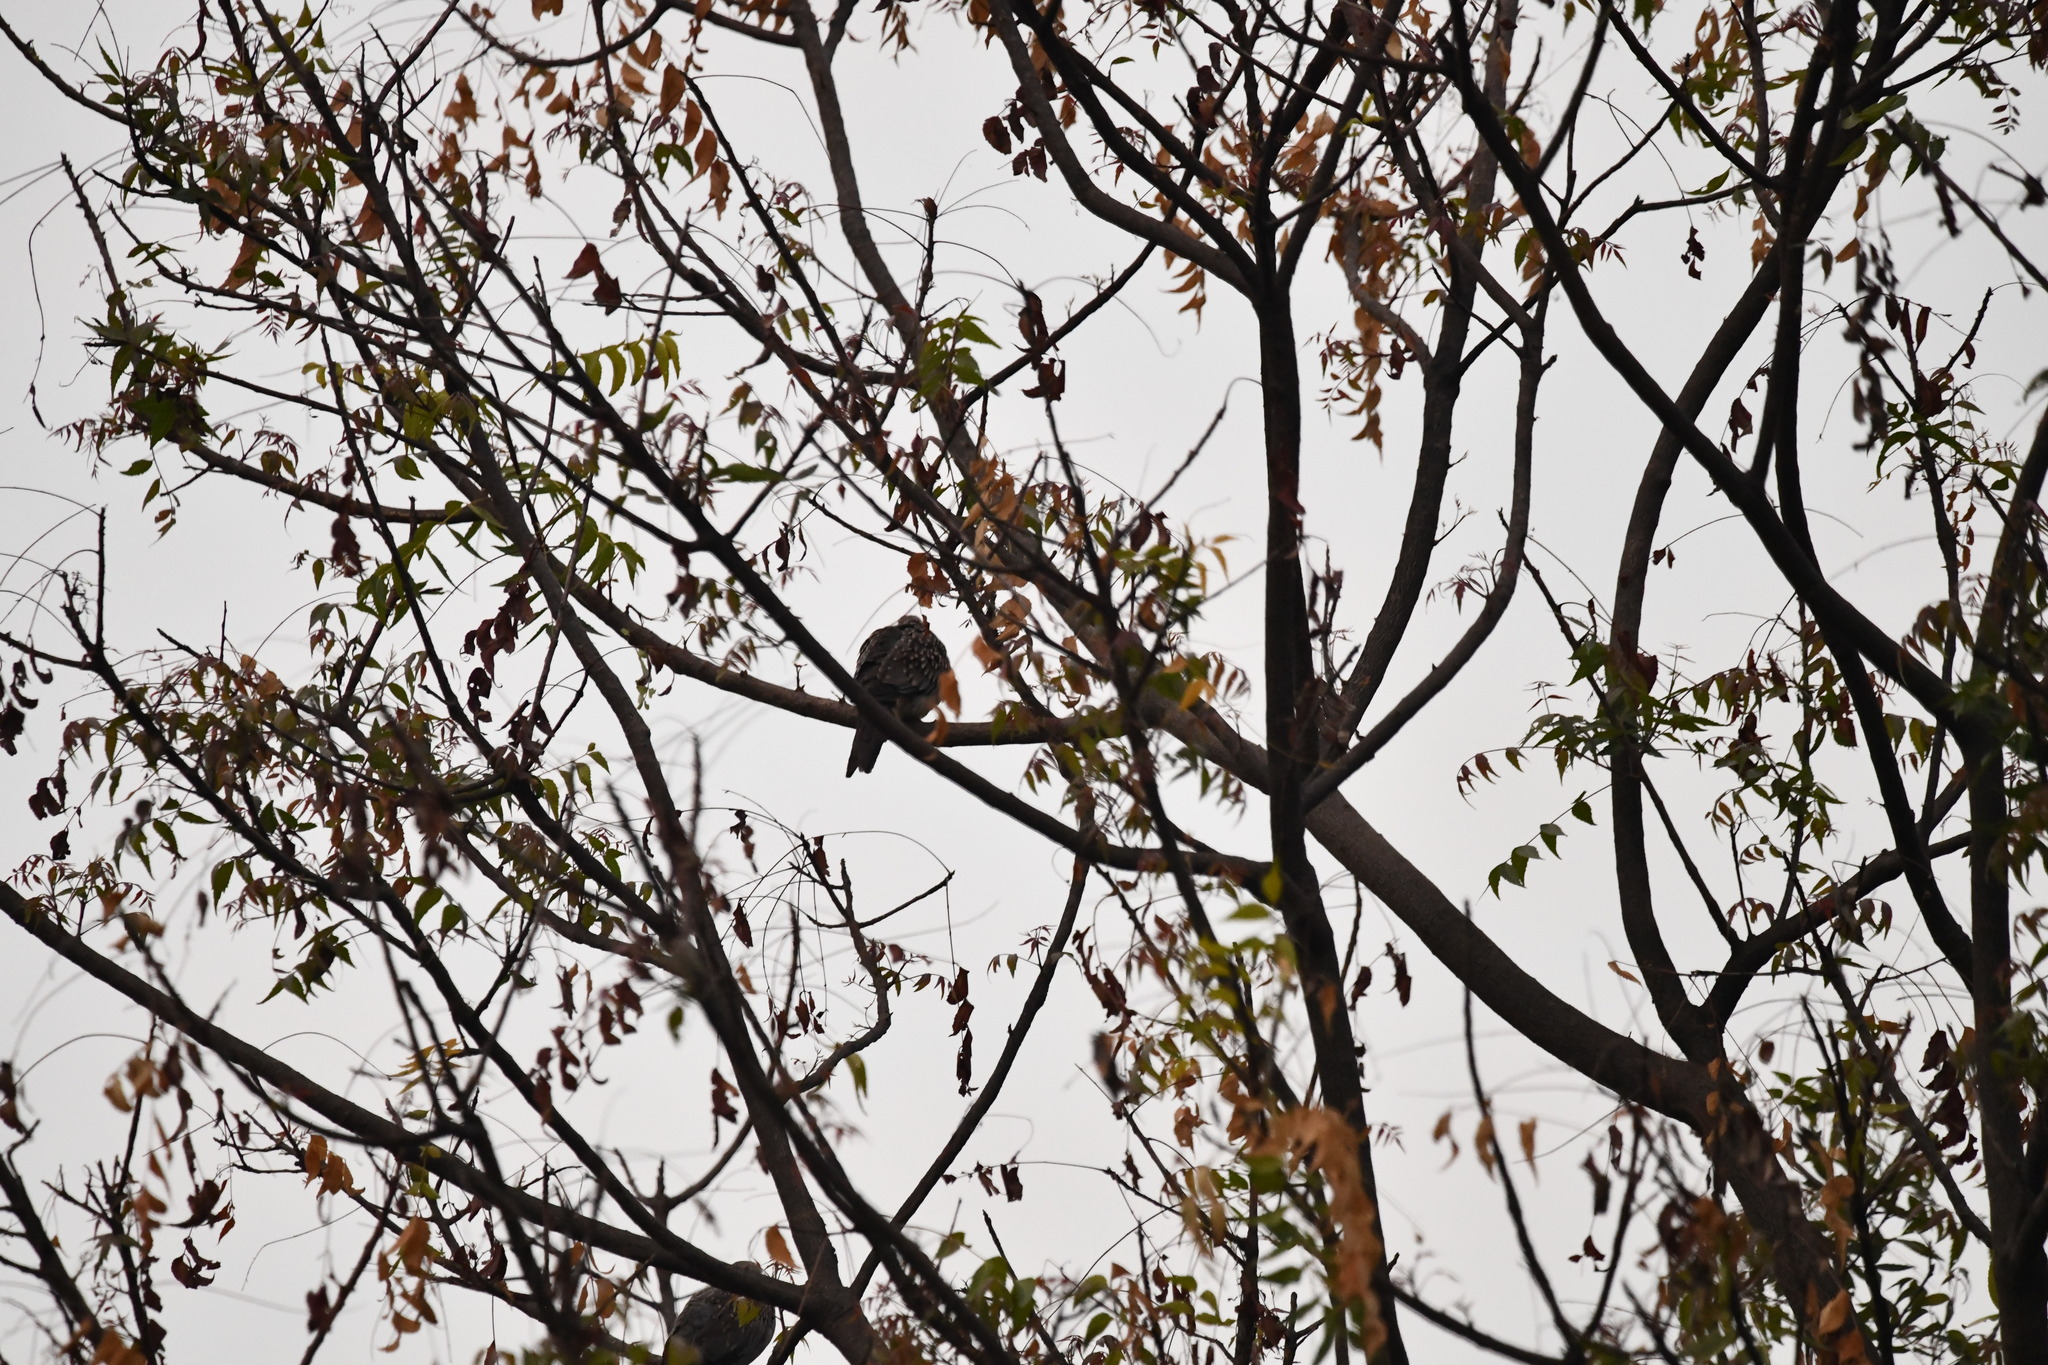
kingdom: Animalia
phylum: Chordata
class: Aves
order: Columbiformes
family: Columbidae
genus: Spilopelia
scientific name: Spilopelia chinensis
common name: Spotted dove
